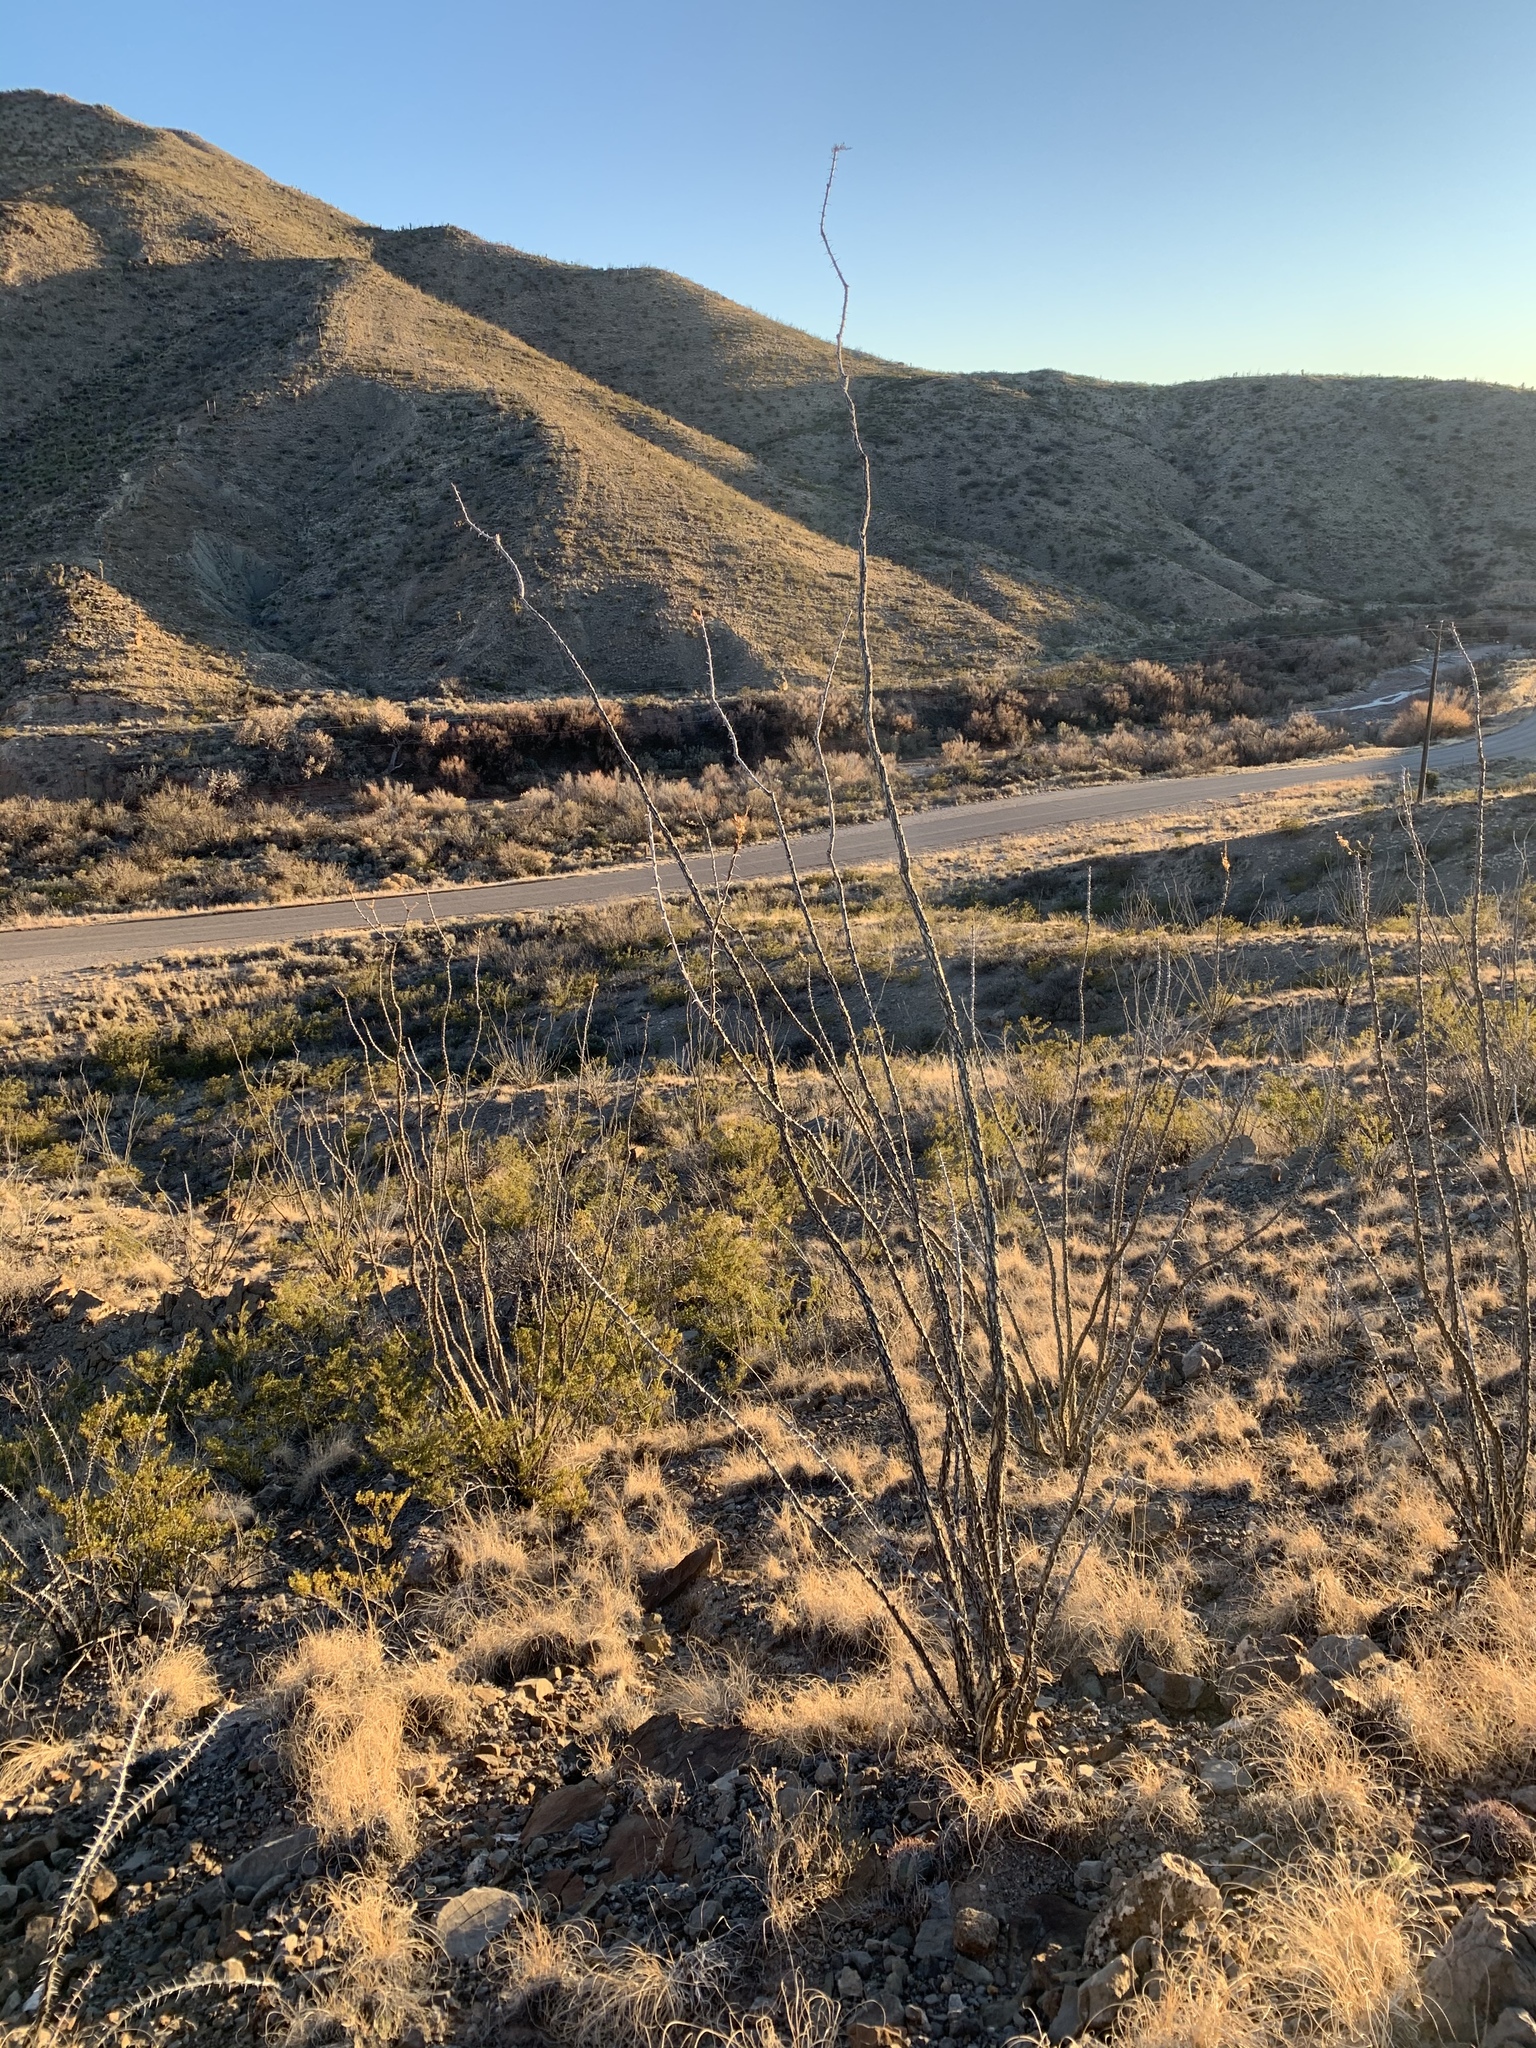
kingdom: Plantae
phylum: Tracheophyta
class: Magnoliopsida
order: Ericales
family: Fouquieriaceae
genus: Fouquieria
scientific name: Fouquieria splendens
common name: Vine-cactus
